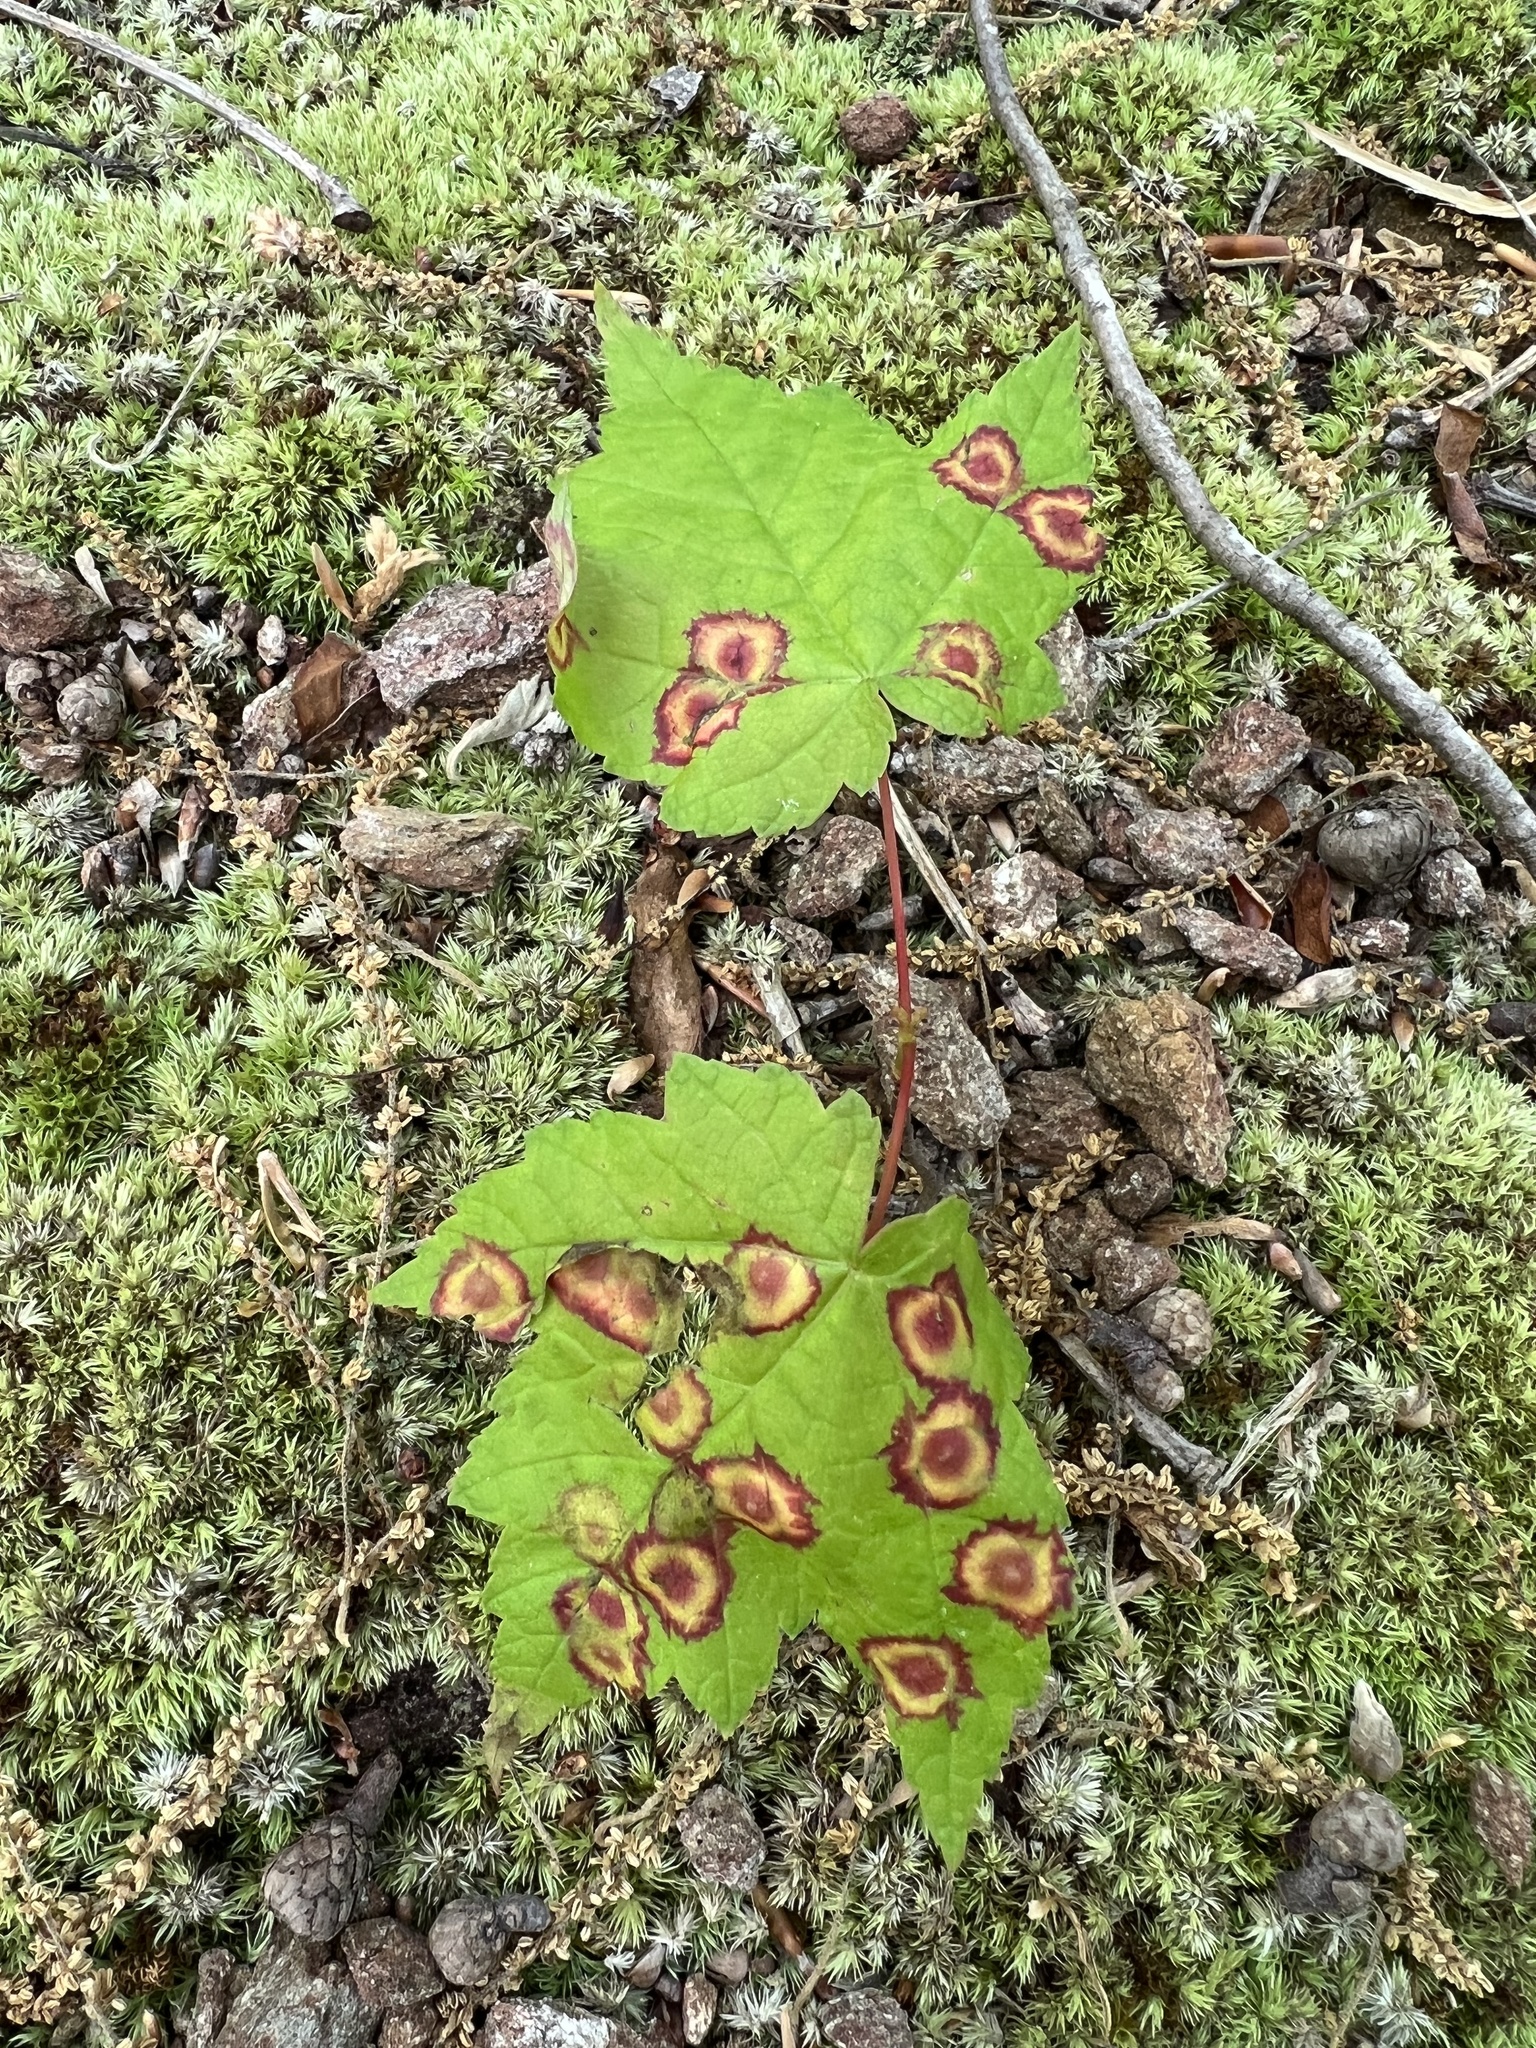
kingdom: Animalia
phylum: Arthropoda
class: Insecta
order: Diptera
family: Cecidomyiidae
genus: Acericecis
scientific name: Acericecis ocellaris
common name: Ocellate gall midge
